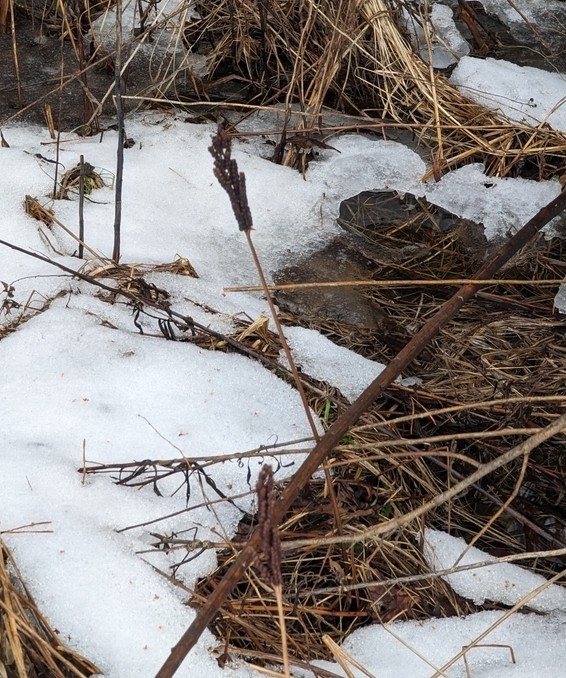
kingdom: Plantae
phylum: Tracheophyta
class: Polypodiopsida
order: Polypodiales
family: Onocleaceae
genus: Onoclea
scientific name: Onoclea sensibilis
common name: Sensitive fern
